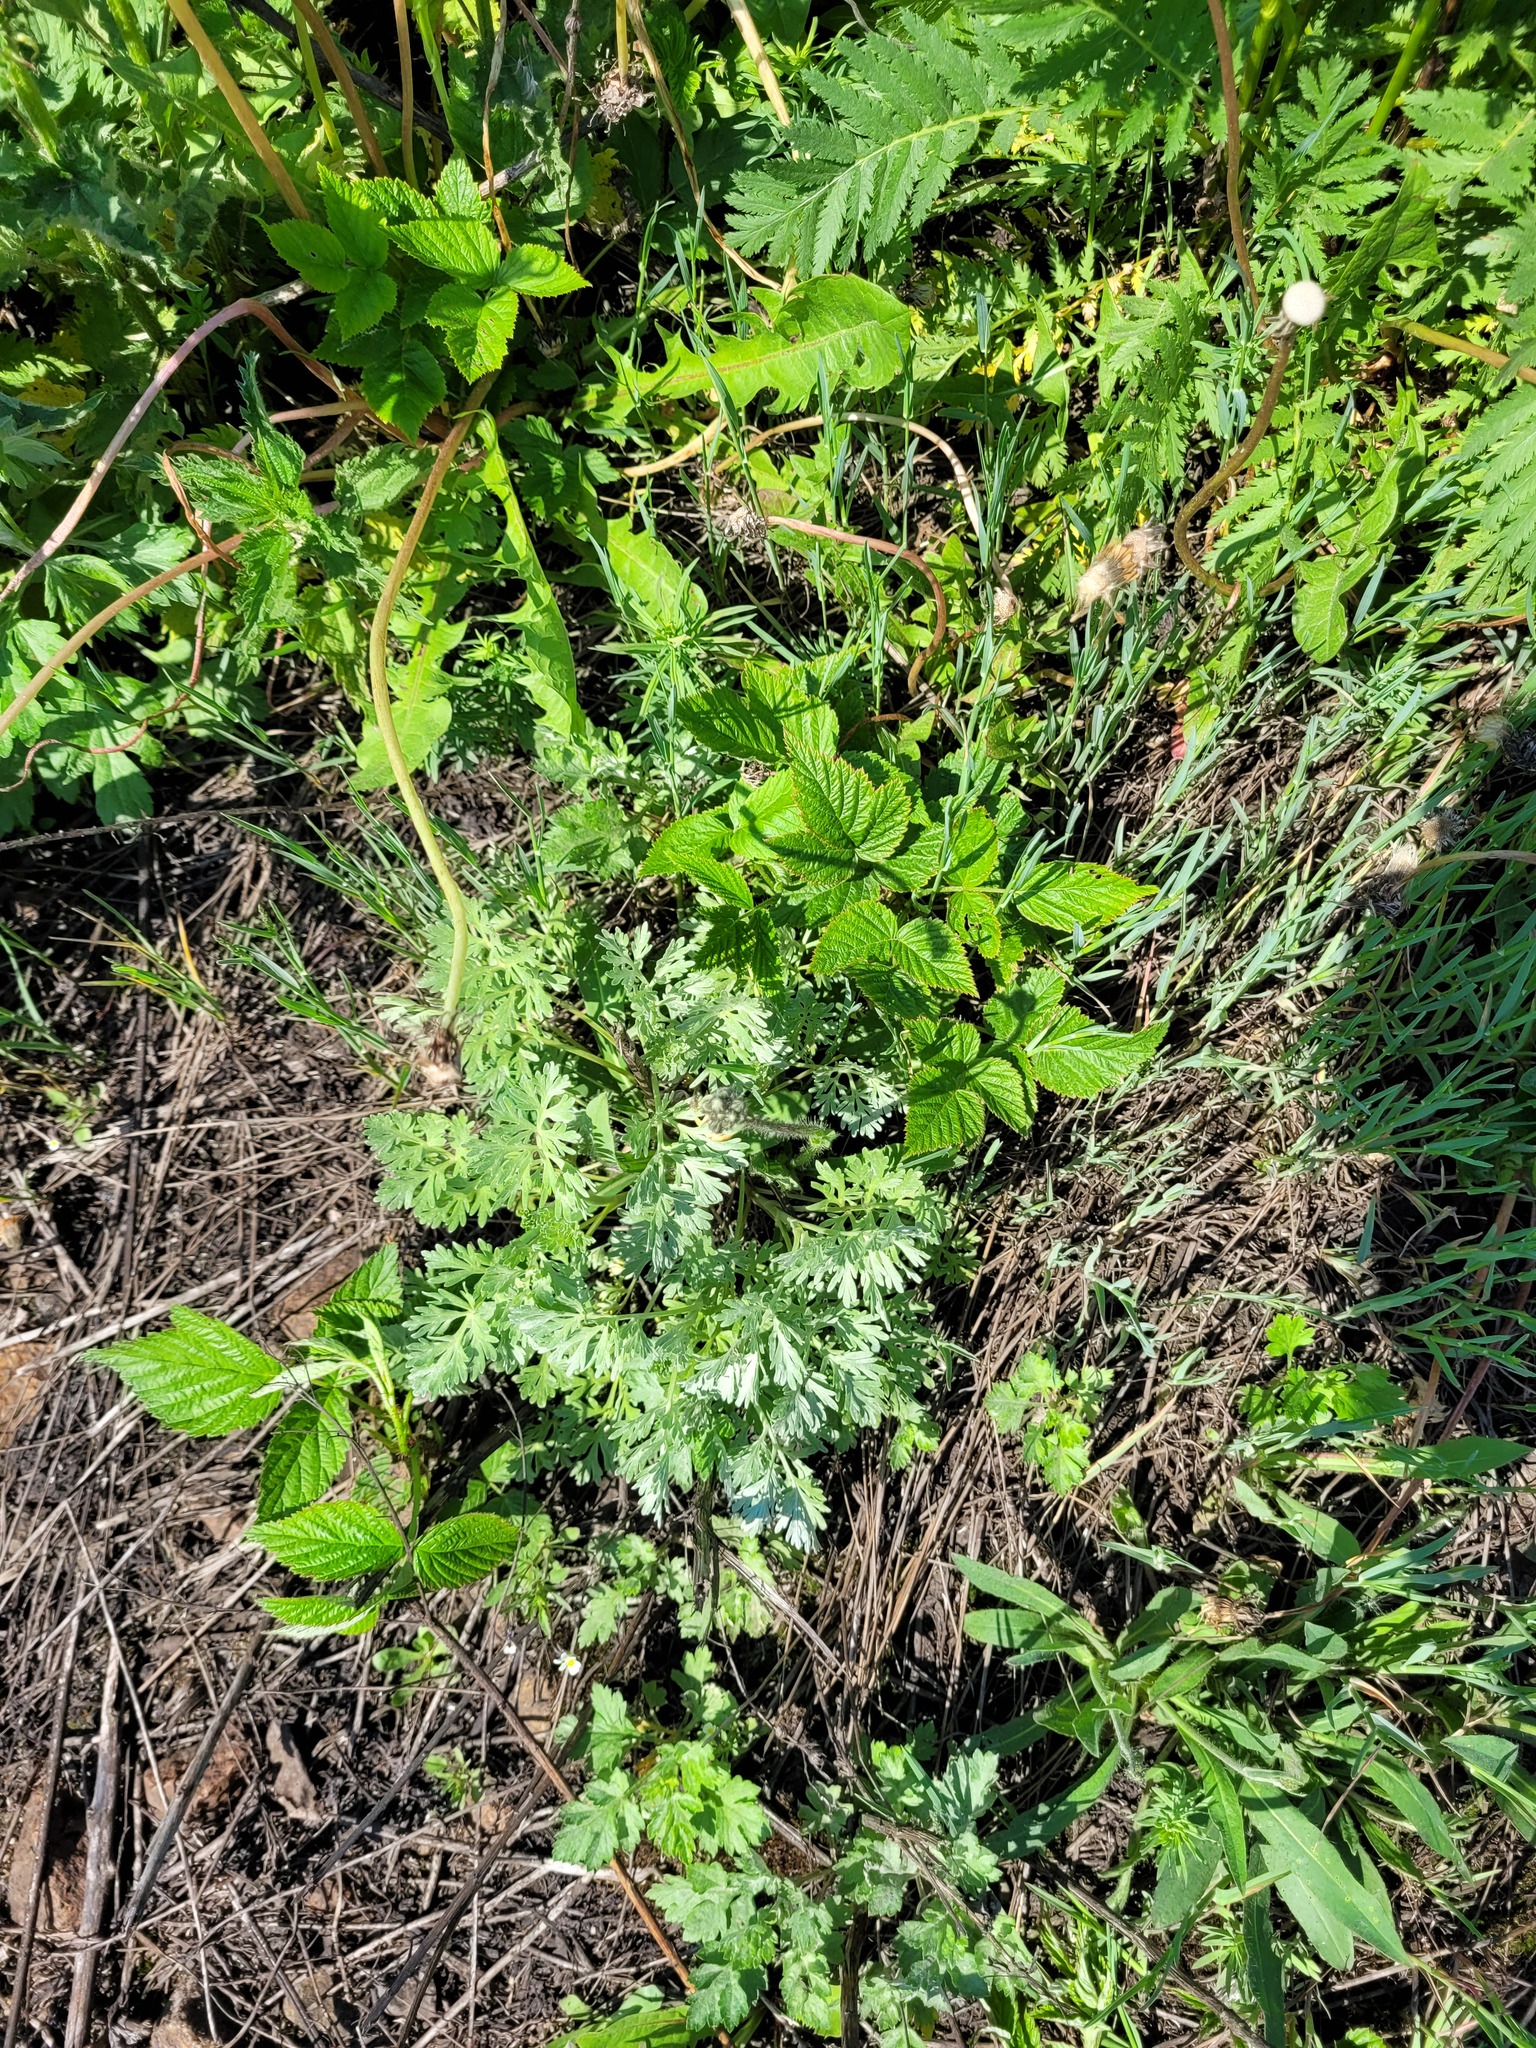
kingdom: Plantae
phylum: Tracheophyta
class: Magnoliopsida
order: Asterales
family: Asteraceae
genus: Artemisia
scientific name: Artemisia absinthium
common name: Wormwood
